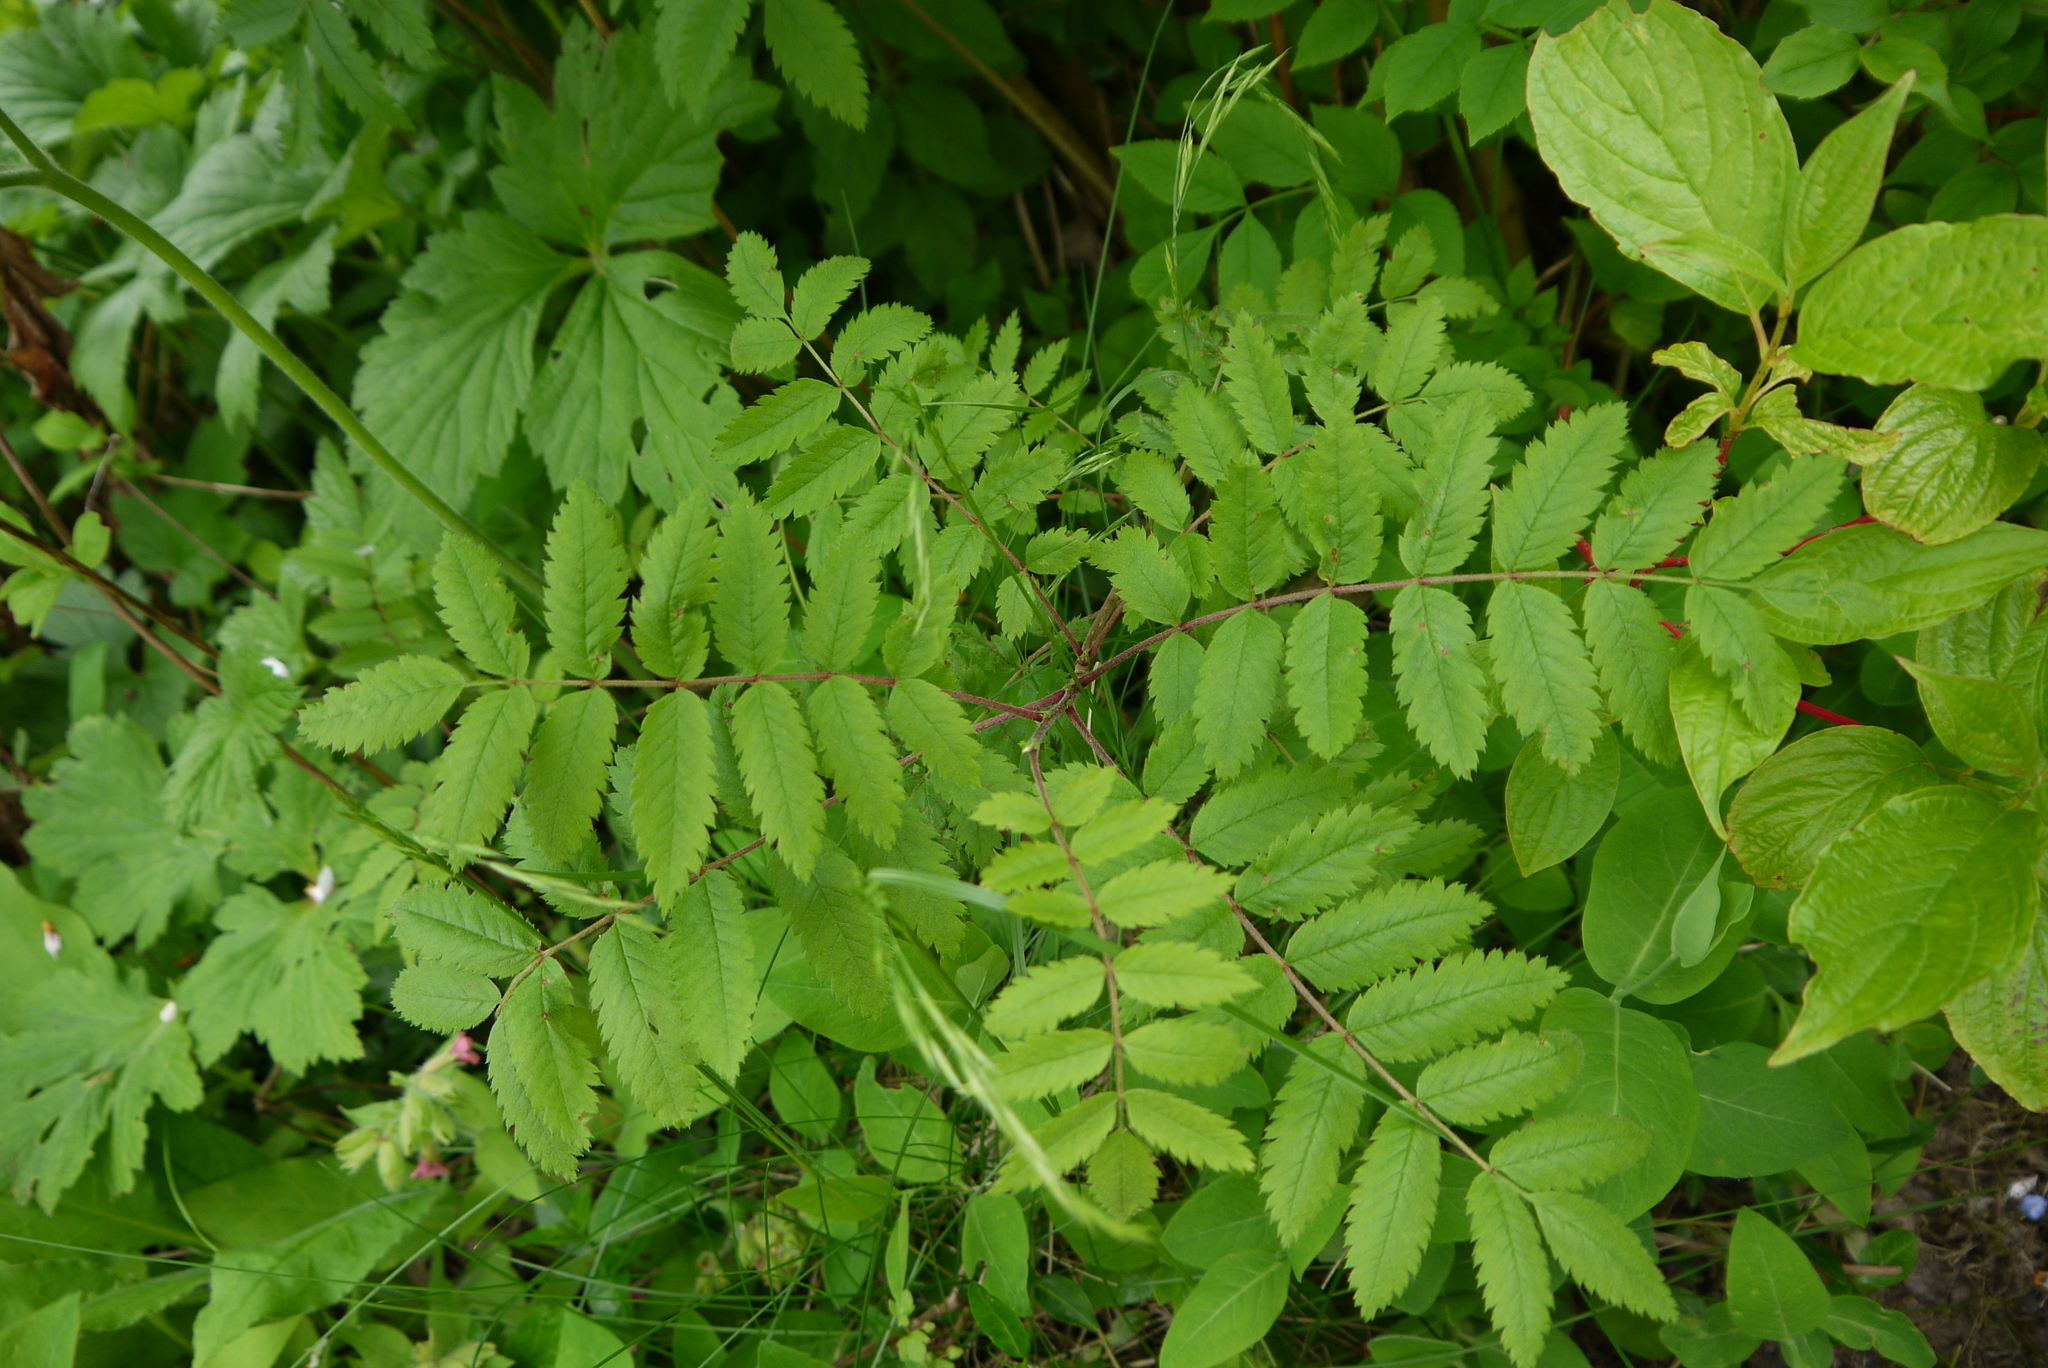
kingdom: Plantae
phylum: Tracheophyta
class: Magnoliopsida
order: Rosales
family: Rosaceae
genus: Sorbus
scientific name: Sorbus aucuparia
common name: Rowan
